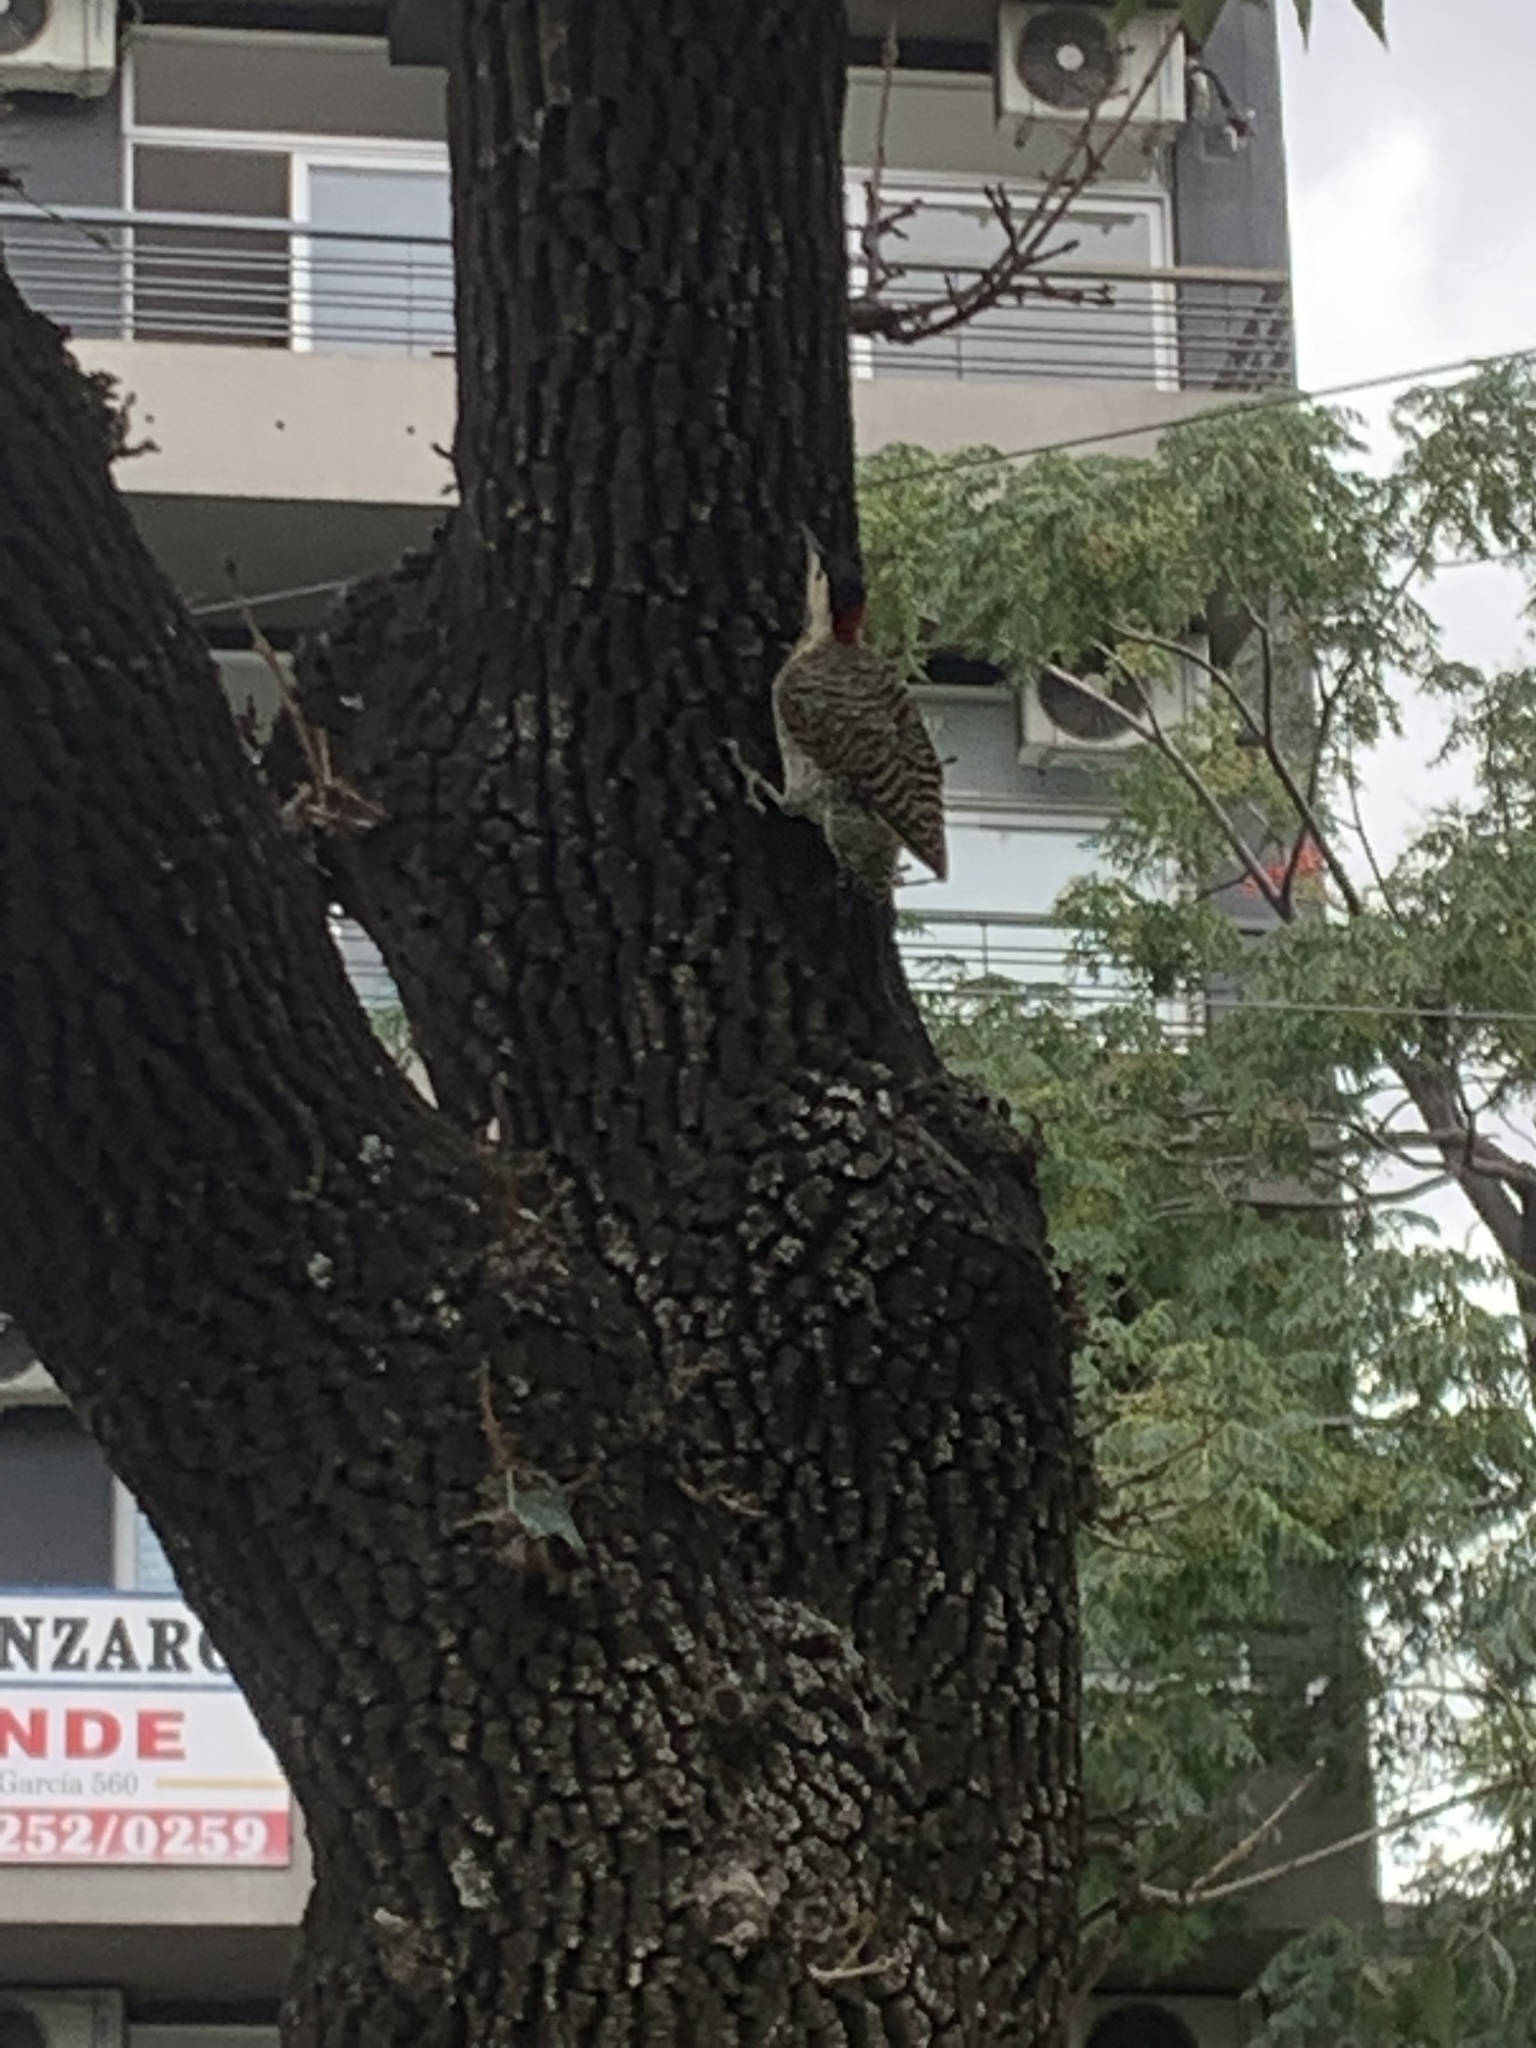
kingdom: Animalia
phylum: Chordata
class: Aves
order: Piciformes
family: Picidae
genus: Colaptes
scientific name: Colaptes melanochloros
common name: Green-barred woodpecker
